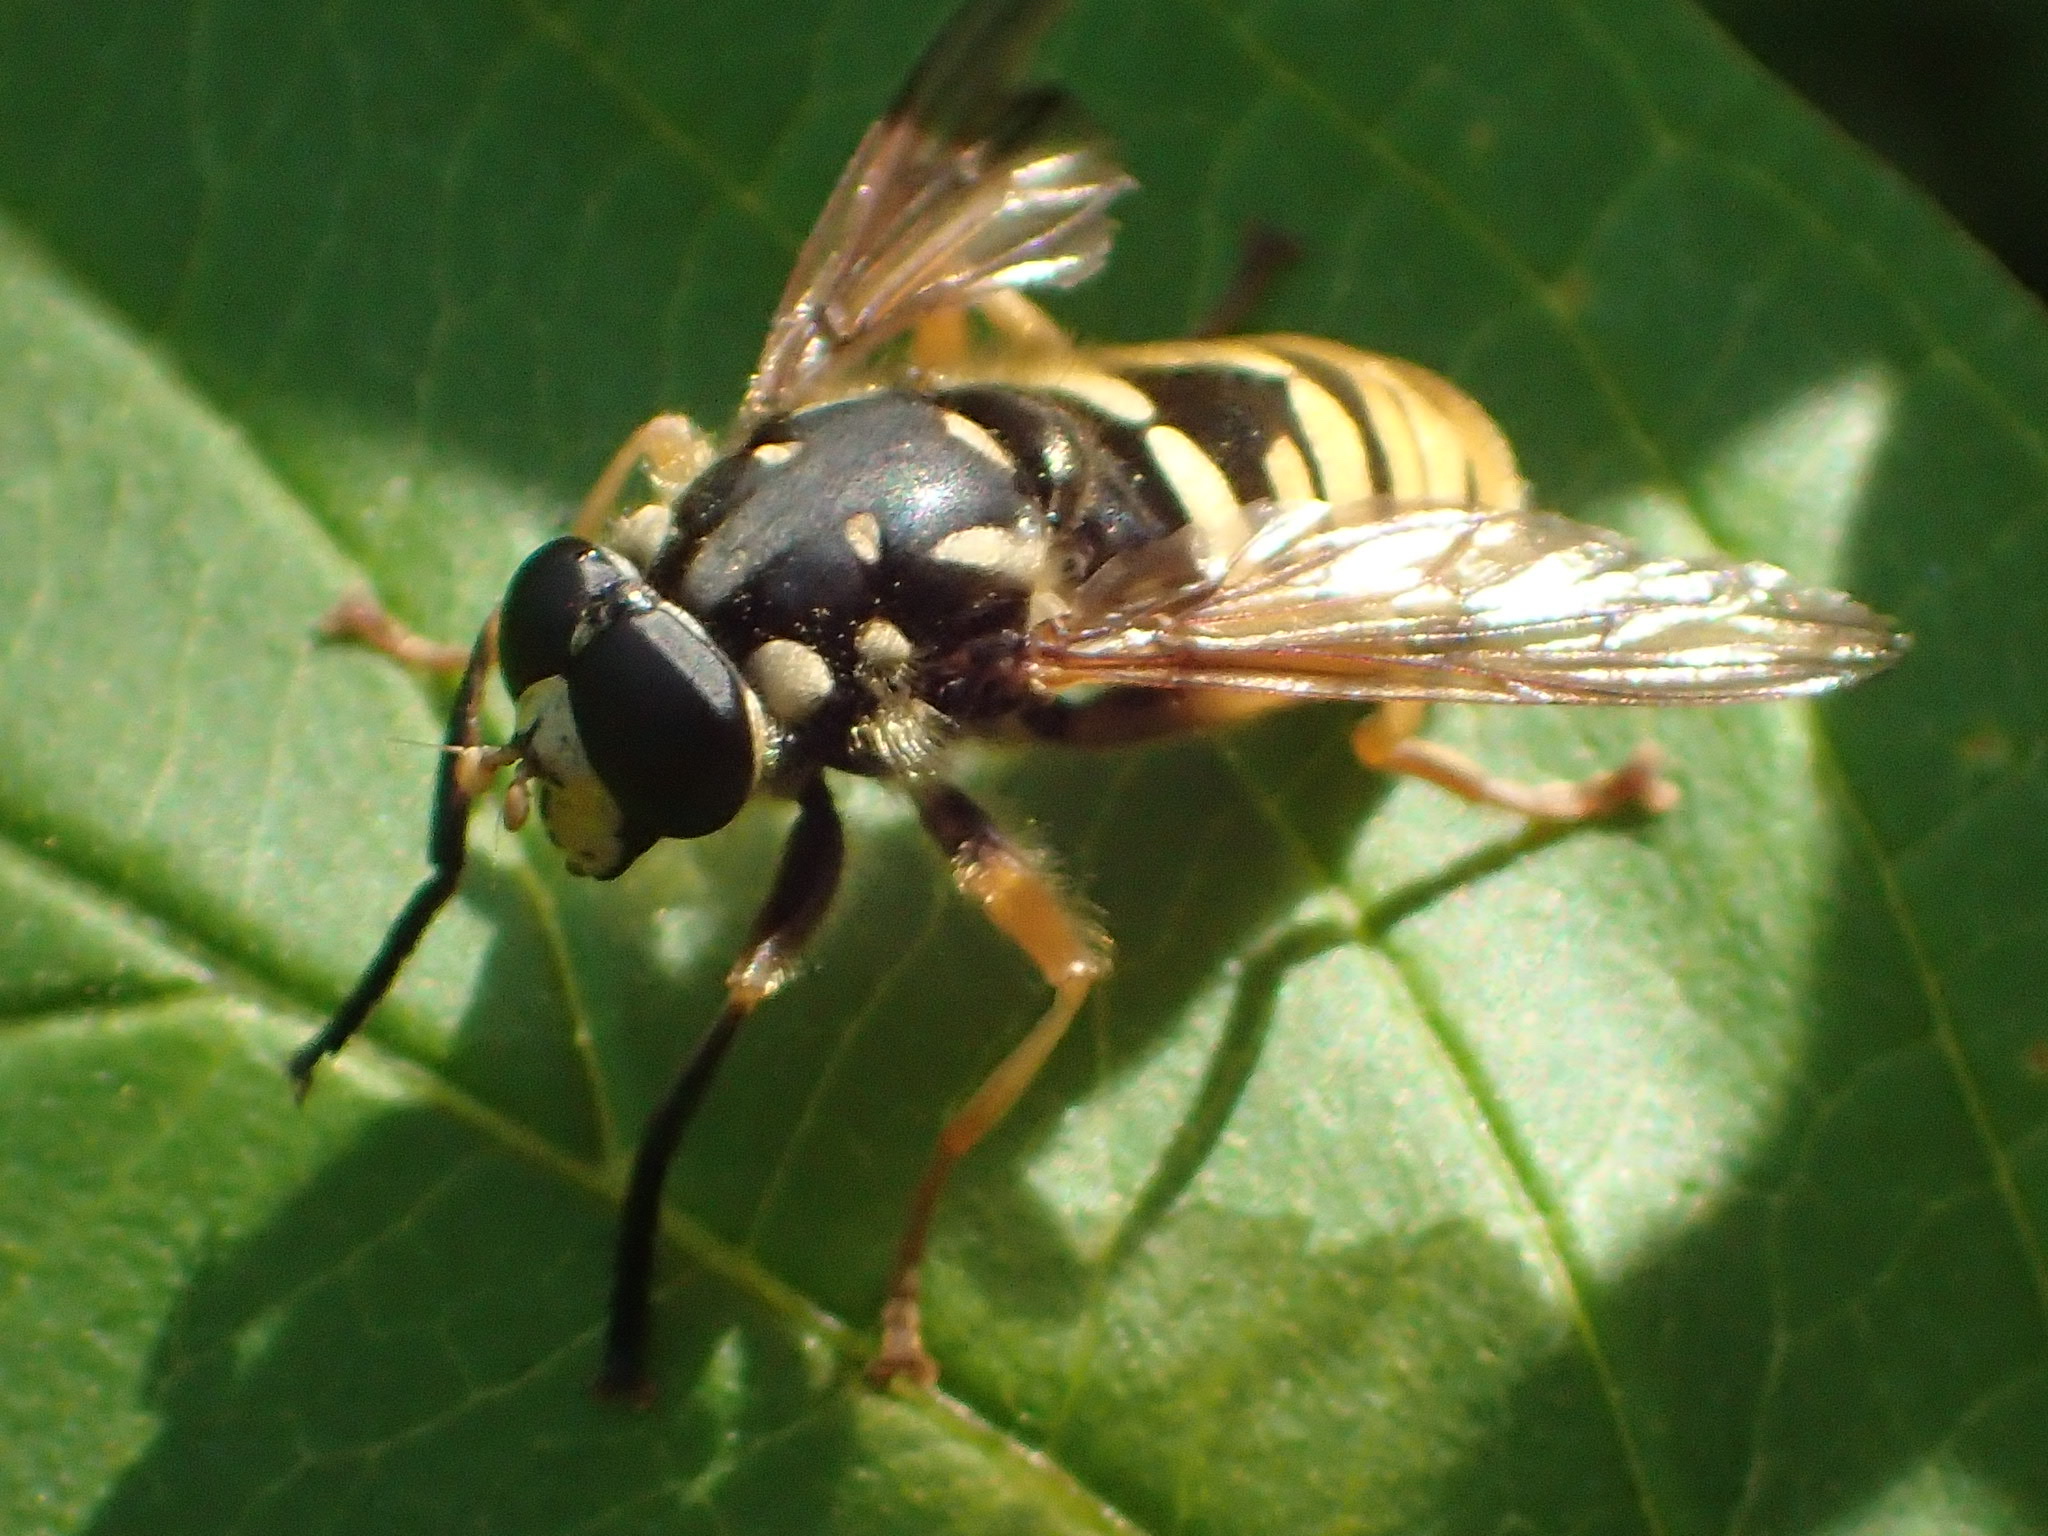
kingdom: Animalia
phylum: Arthropoda
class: Insecta
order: Diptera
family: Syrphidae
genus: Temnostoma
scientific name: Temnostoma alternans
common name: Wasp-like falsehorn
